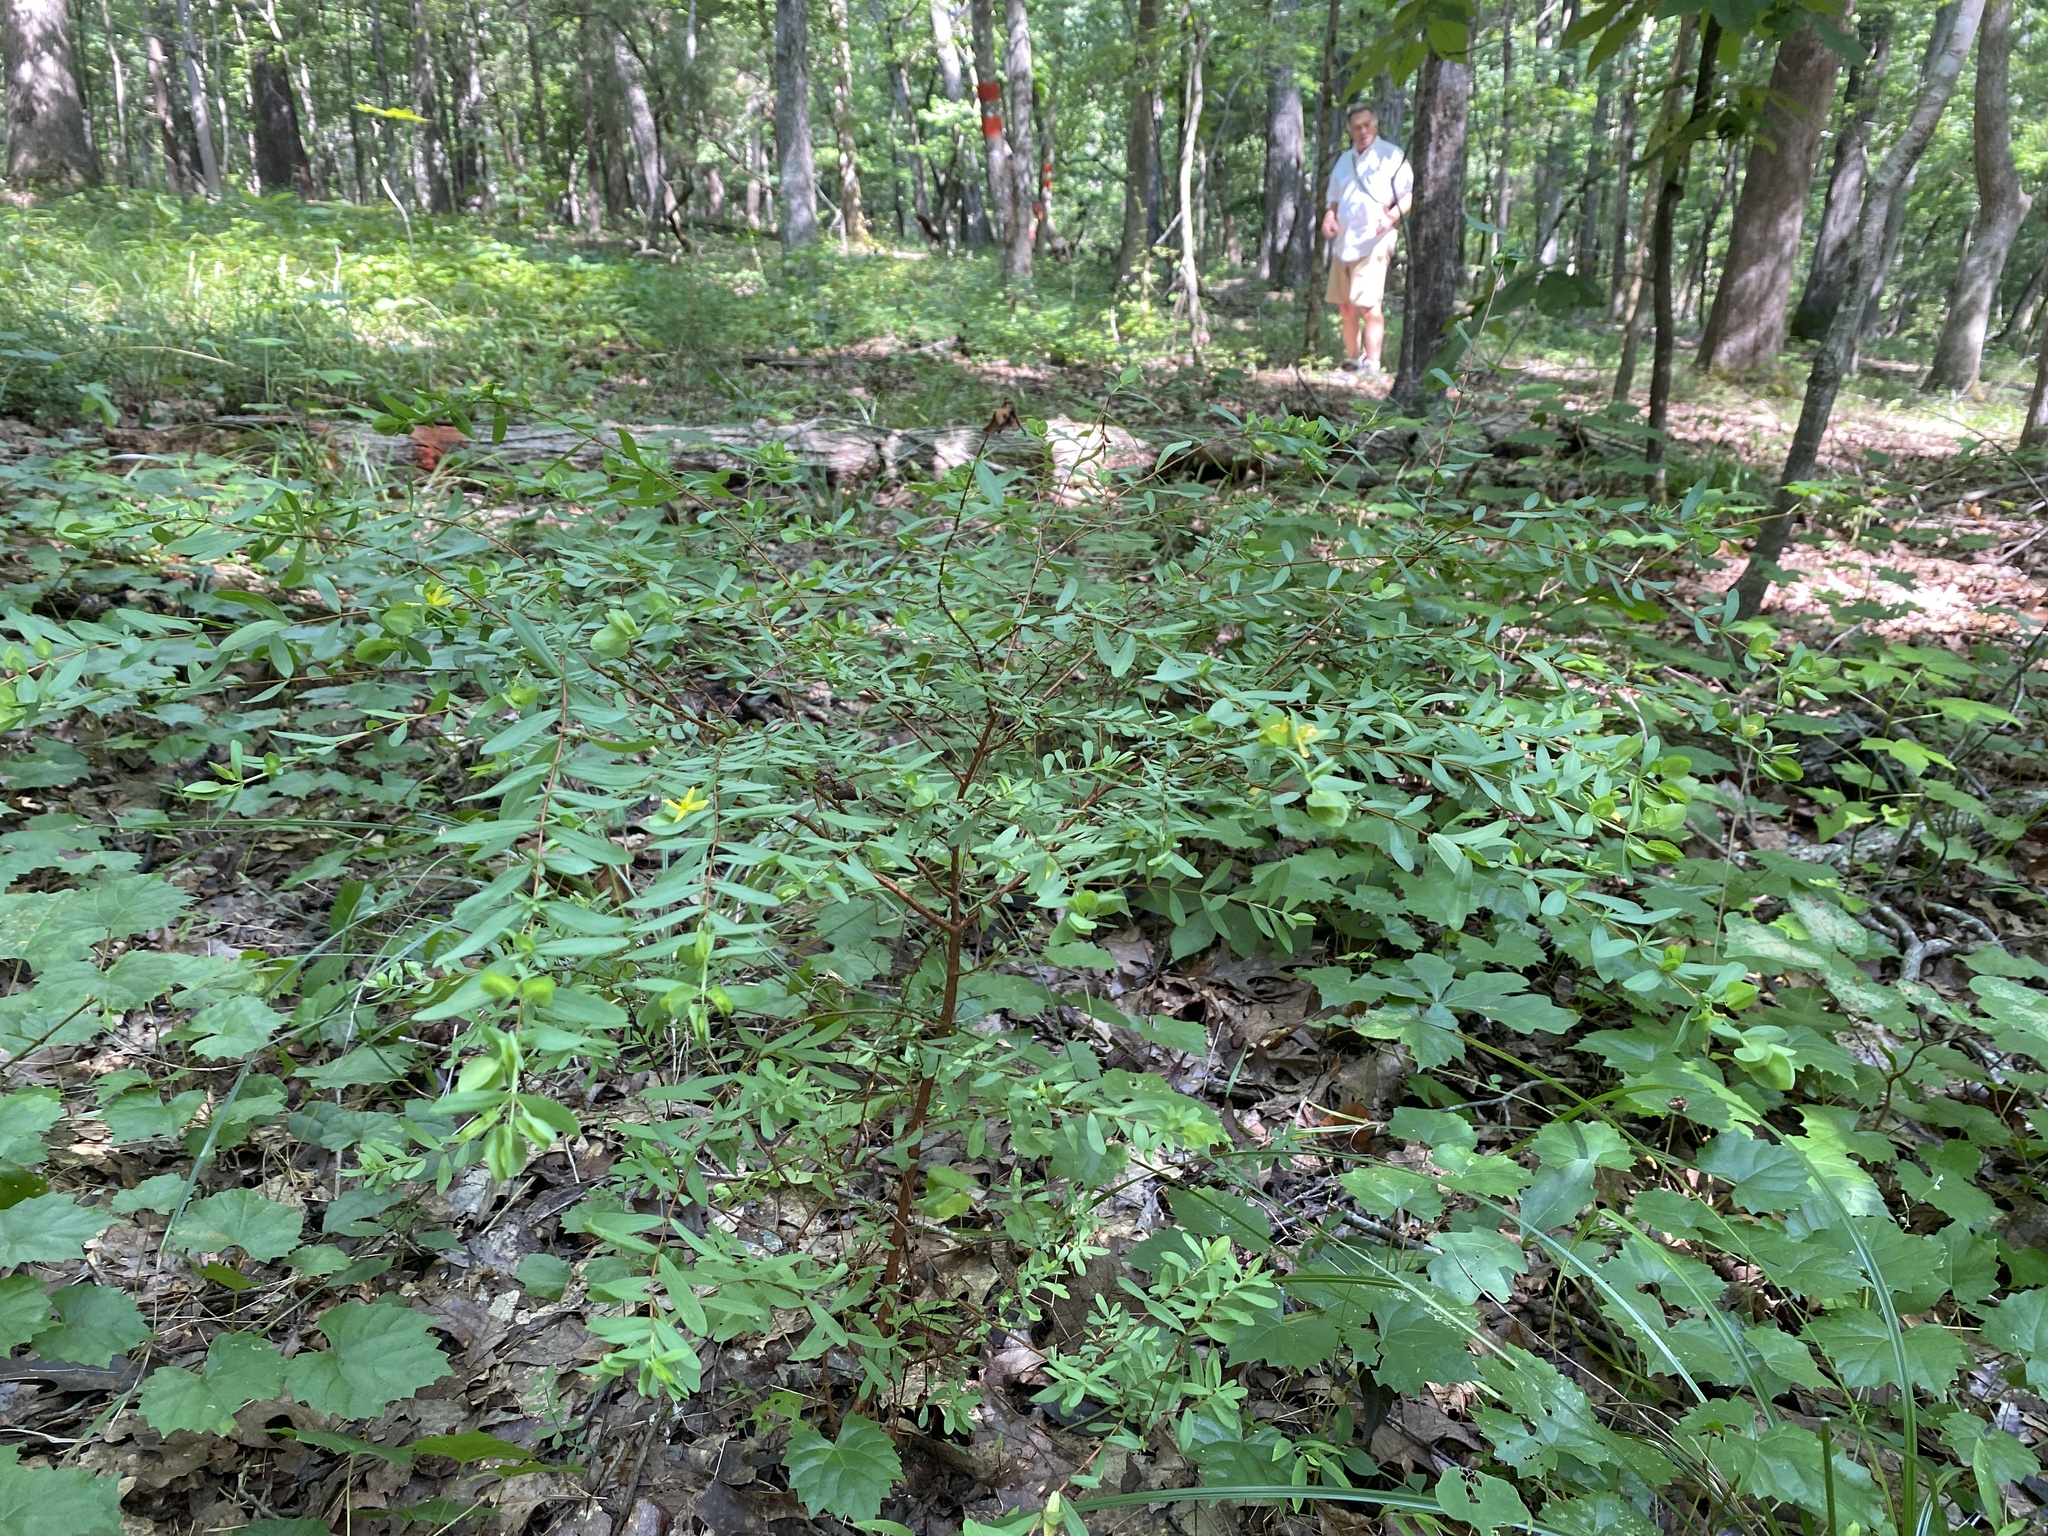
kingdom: Plantae
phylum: Tracheophyta
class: Magnoliopsida
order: Malpighiales
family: Hypericaceae
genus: Hypericum
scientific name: Hypericum hypericoides
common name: St. andrew's cross
